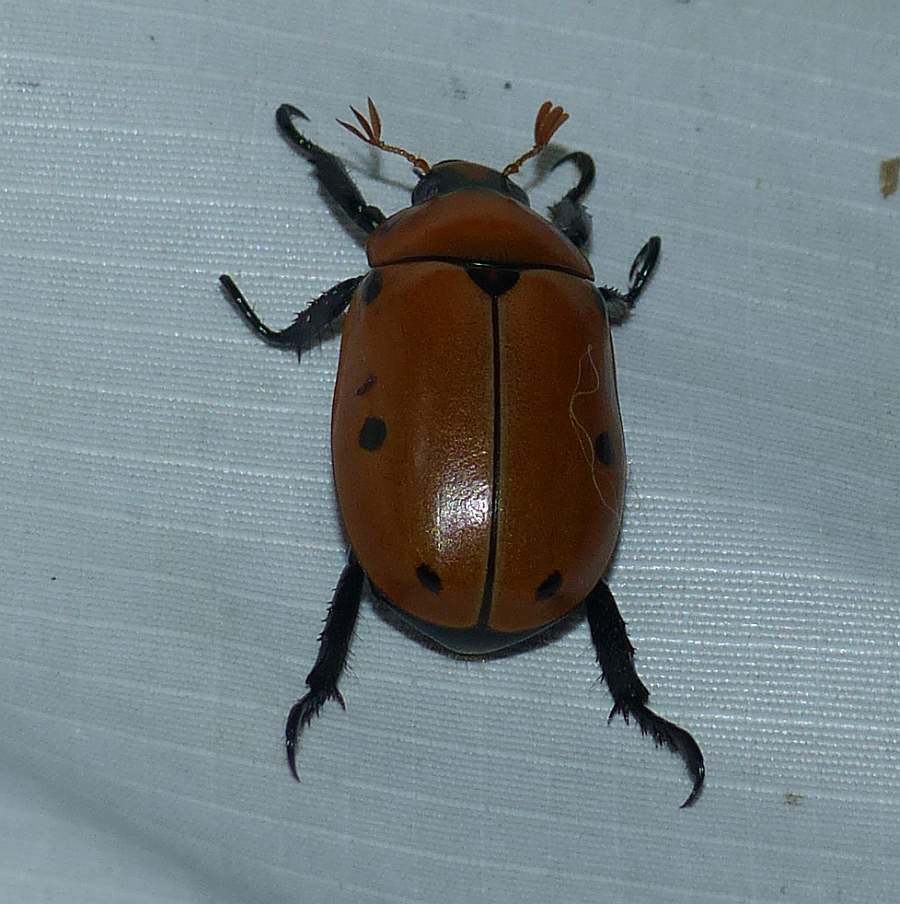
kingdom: Animalia
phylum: Arthropoda
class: Insecta
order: Coleoptera
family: Scarabaeidae
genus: Pelidnota
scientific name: Pelidnota punctata
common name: Grapevine beetle
